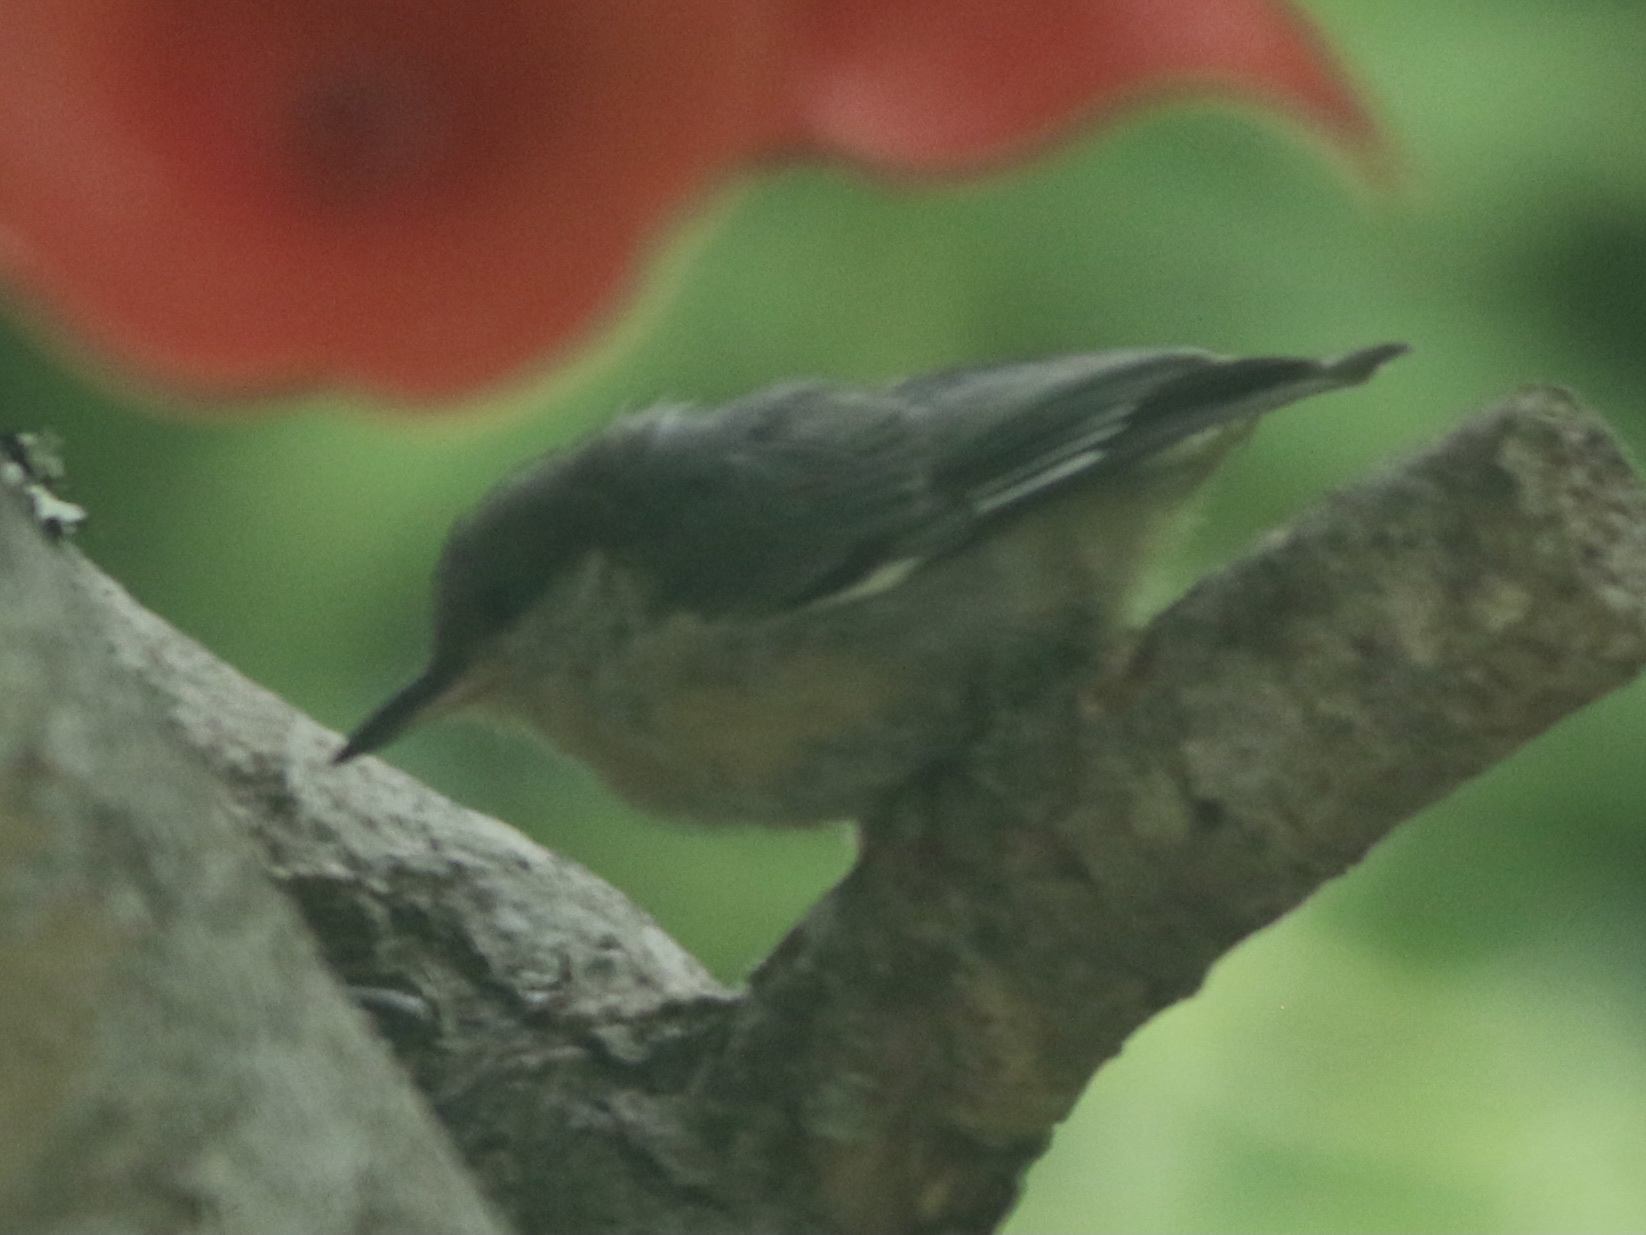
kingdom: Animalia
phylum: Chordata
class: Aves
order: Passeriformes
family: Sittidae
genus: Sitta
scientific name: Sitta pygmaea
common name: Pygmy nuthatch
